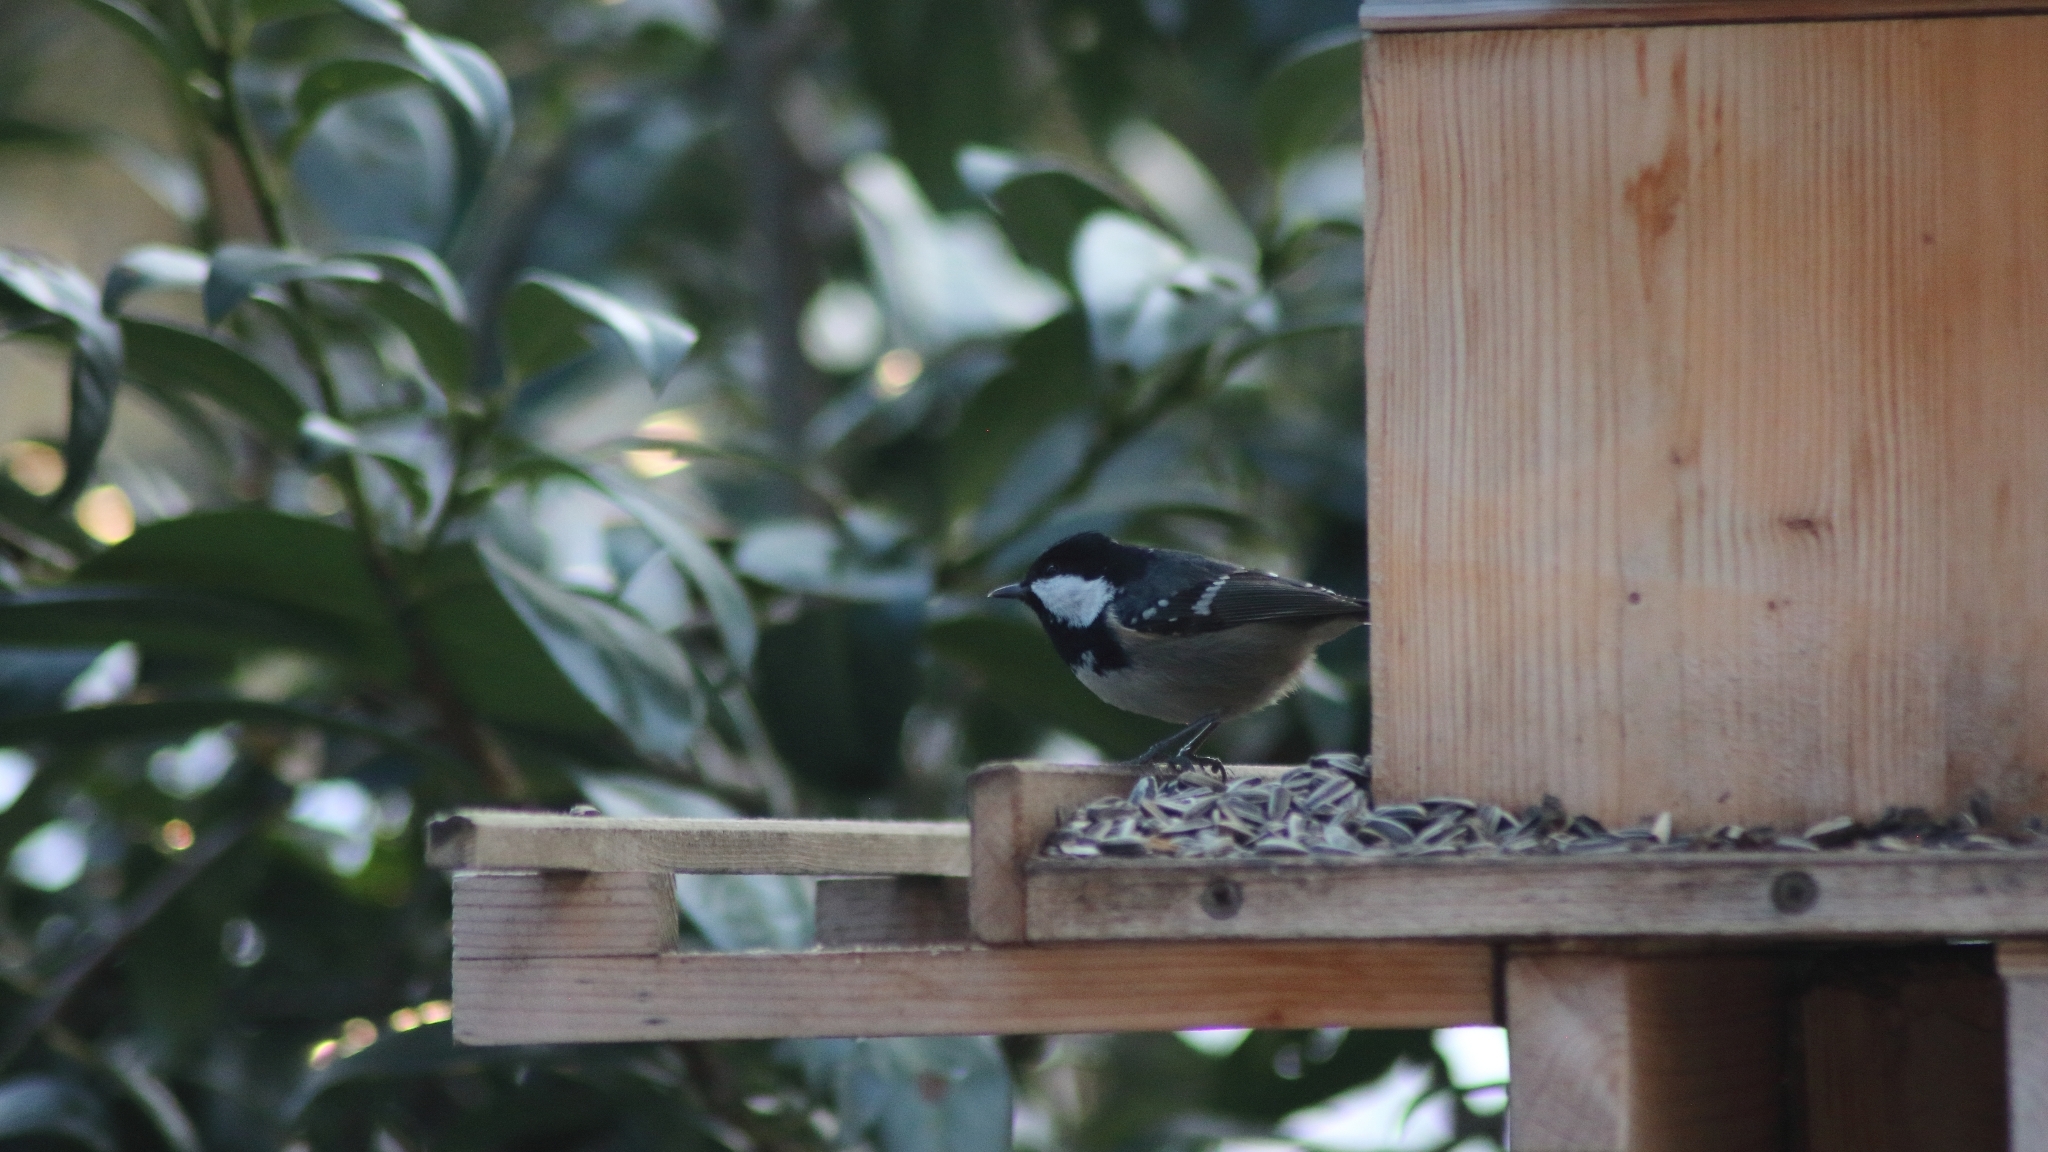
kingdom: Animalia
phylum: Chordata
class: Aves
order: Passeriformes
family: Paridae
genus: Periparus
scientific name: Periparus ater
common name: Coal tit
